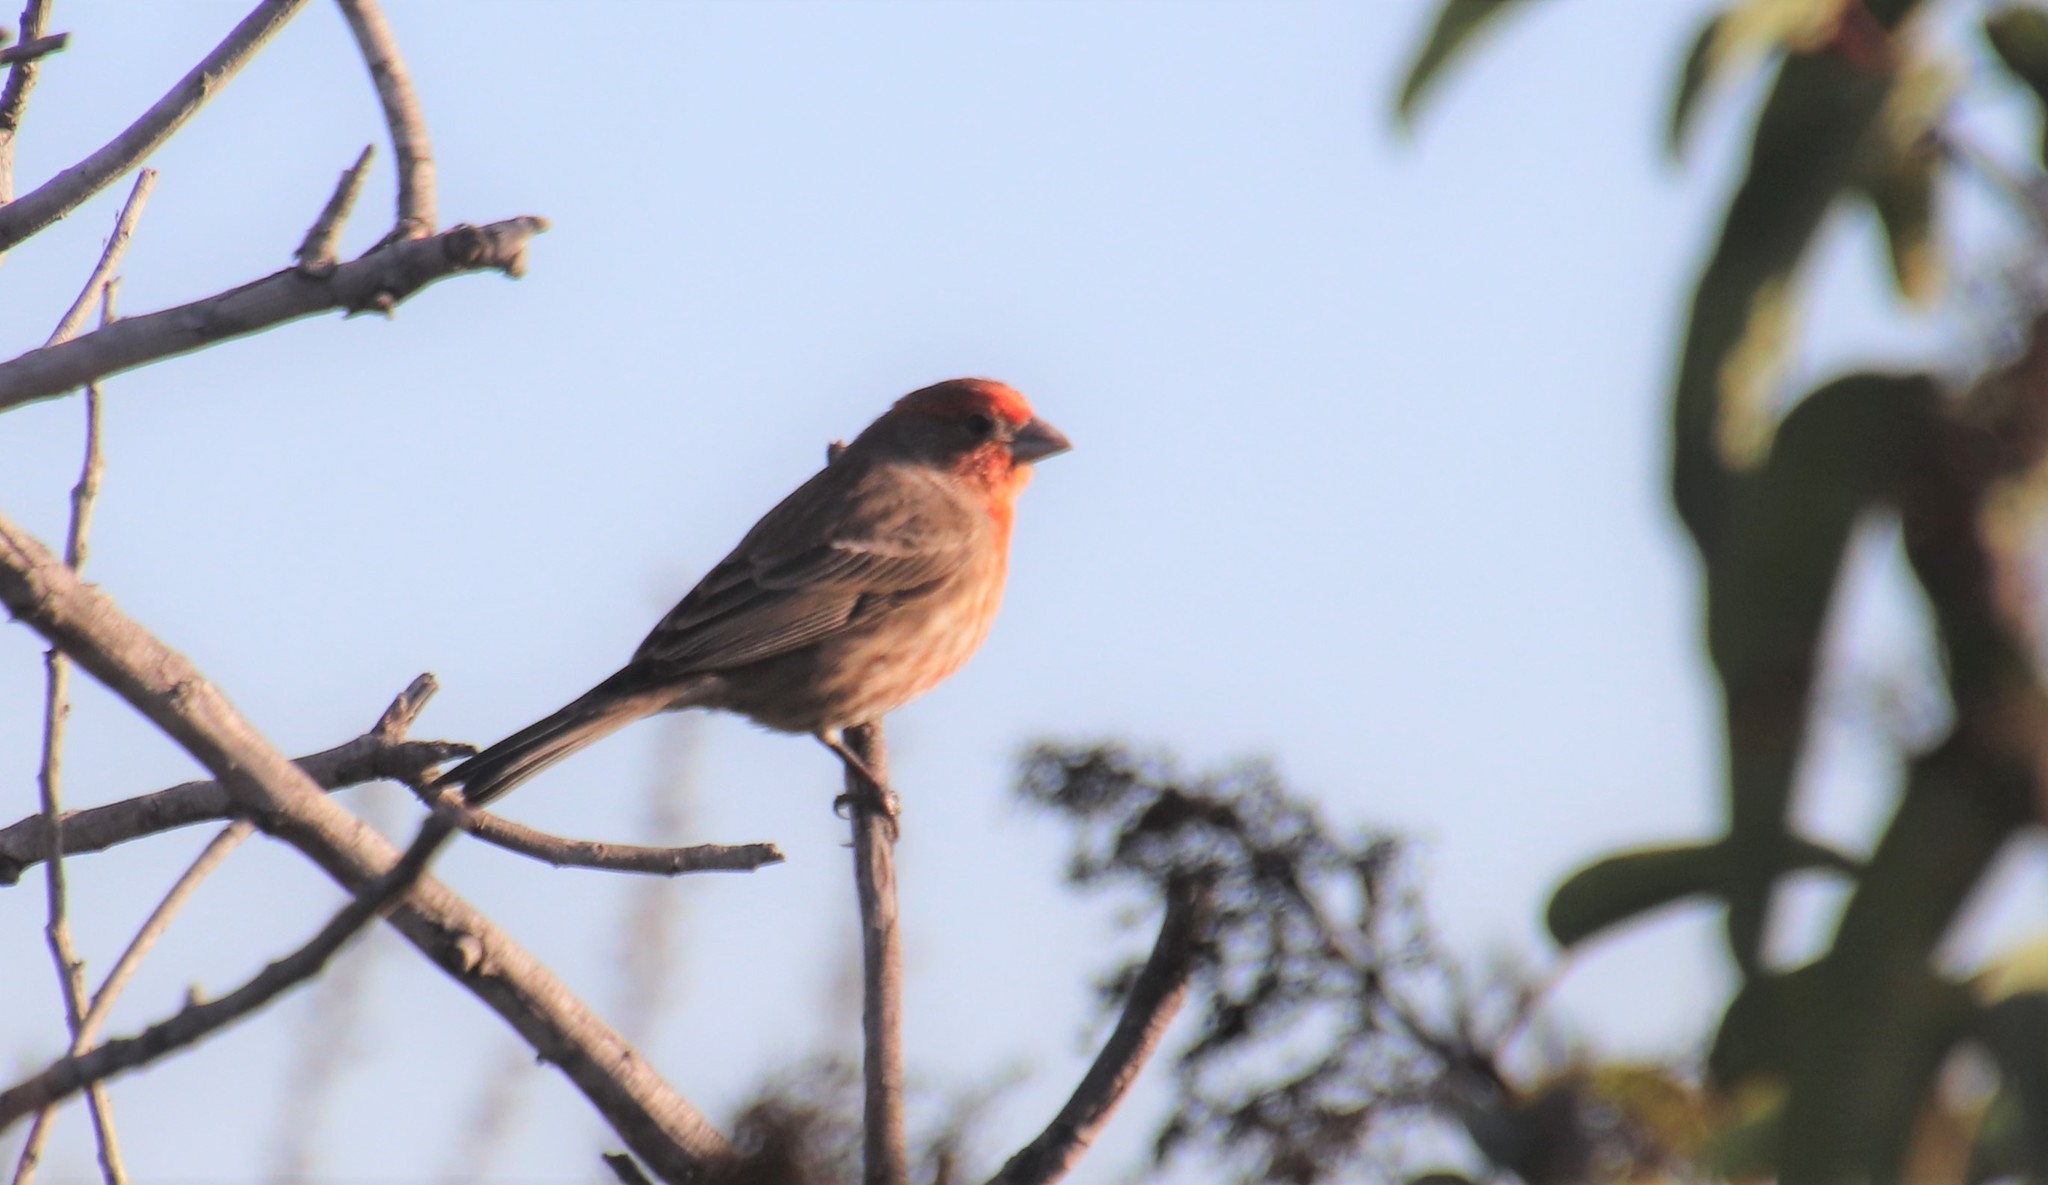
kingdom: Animalia
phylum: Chordata
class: Aves
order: Passeriformes
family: Fringillidae
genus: Haemorhous
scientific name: Haemorhous mexicanus
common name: House finch
